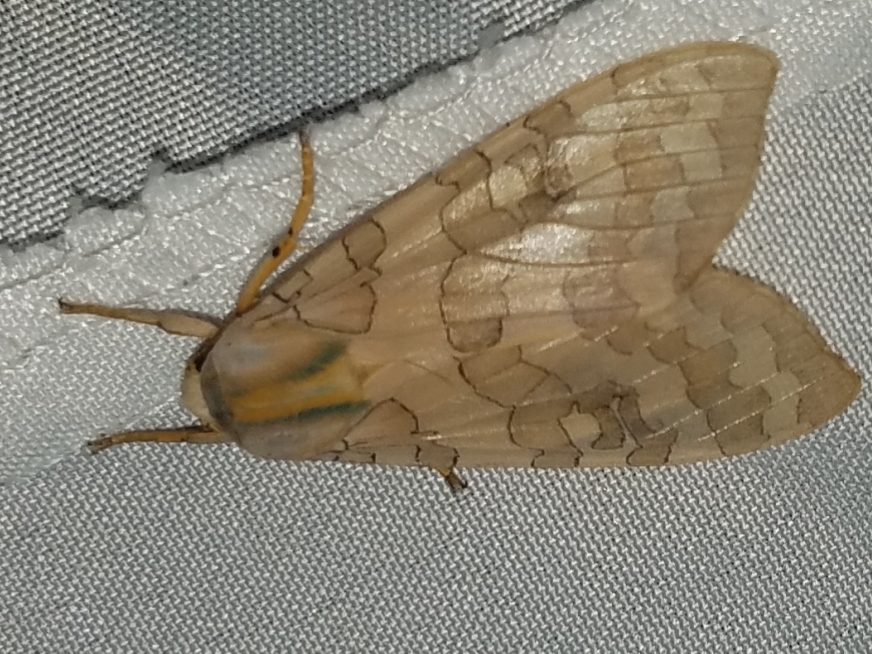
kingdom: Animalia
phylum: Arthropoda
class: Insecta
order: Lepidoptera
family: Erebidae
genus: Halysidota
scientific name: Halysidota
